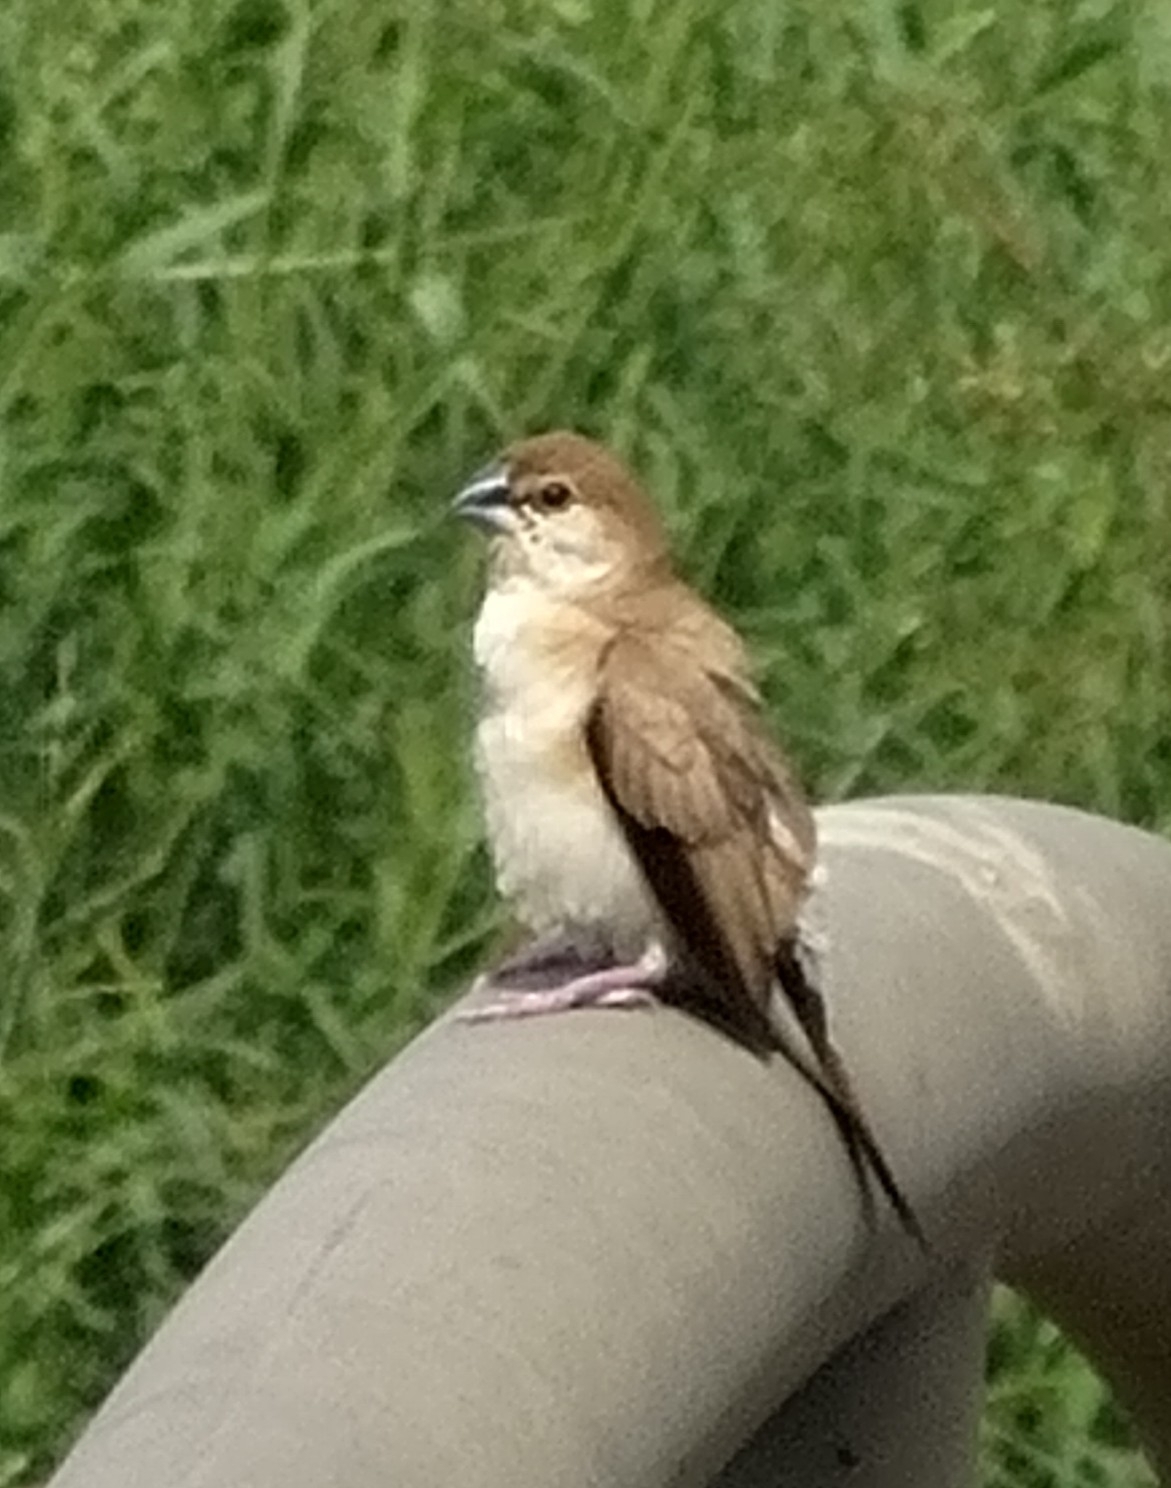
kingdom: Animalia
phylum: Chordata
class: Aves
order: Passeriformes
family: Estrildidae
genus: Euodice
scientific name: Euodice malabarica
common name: Indian silverbill
